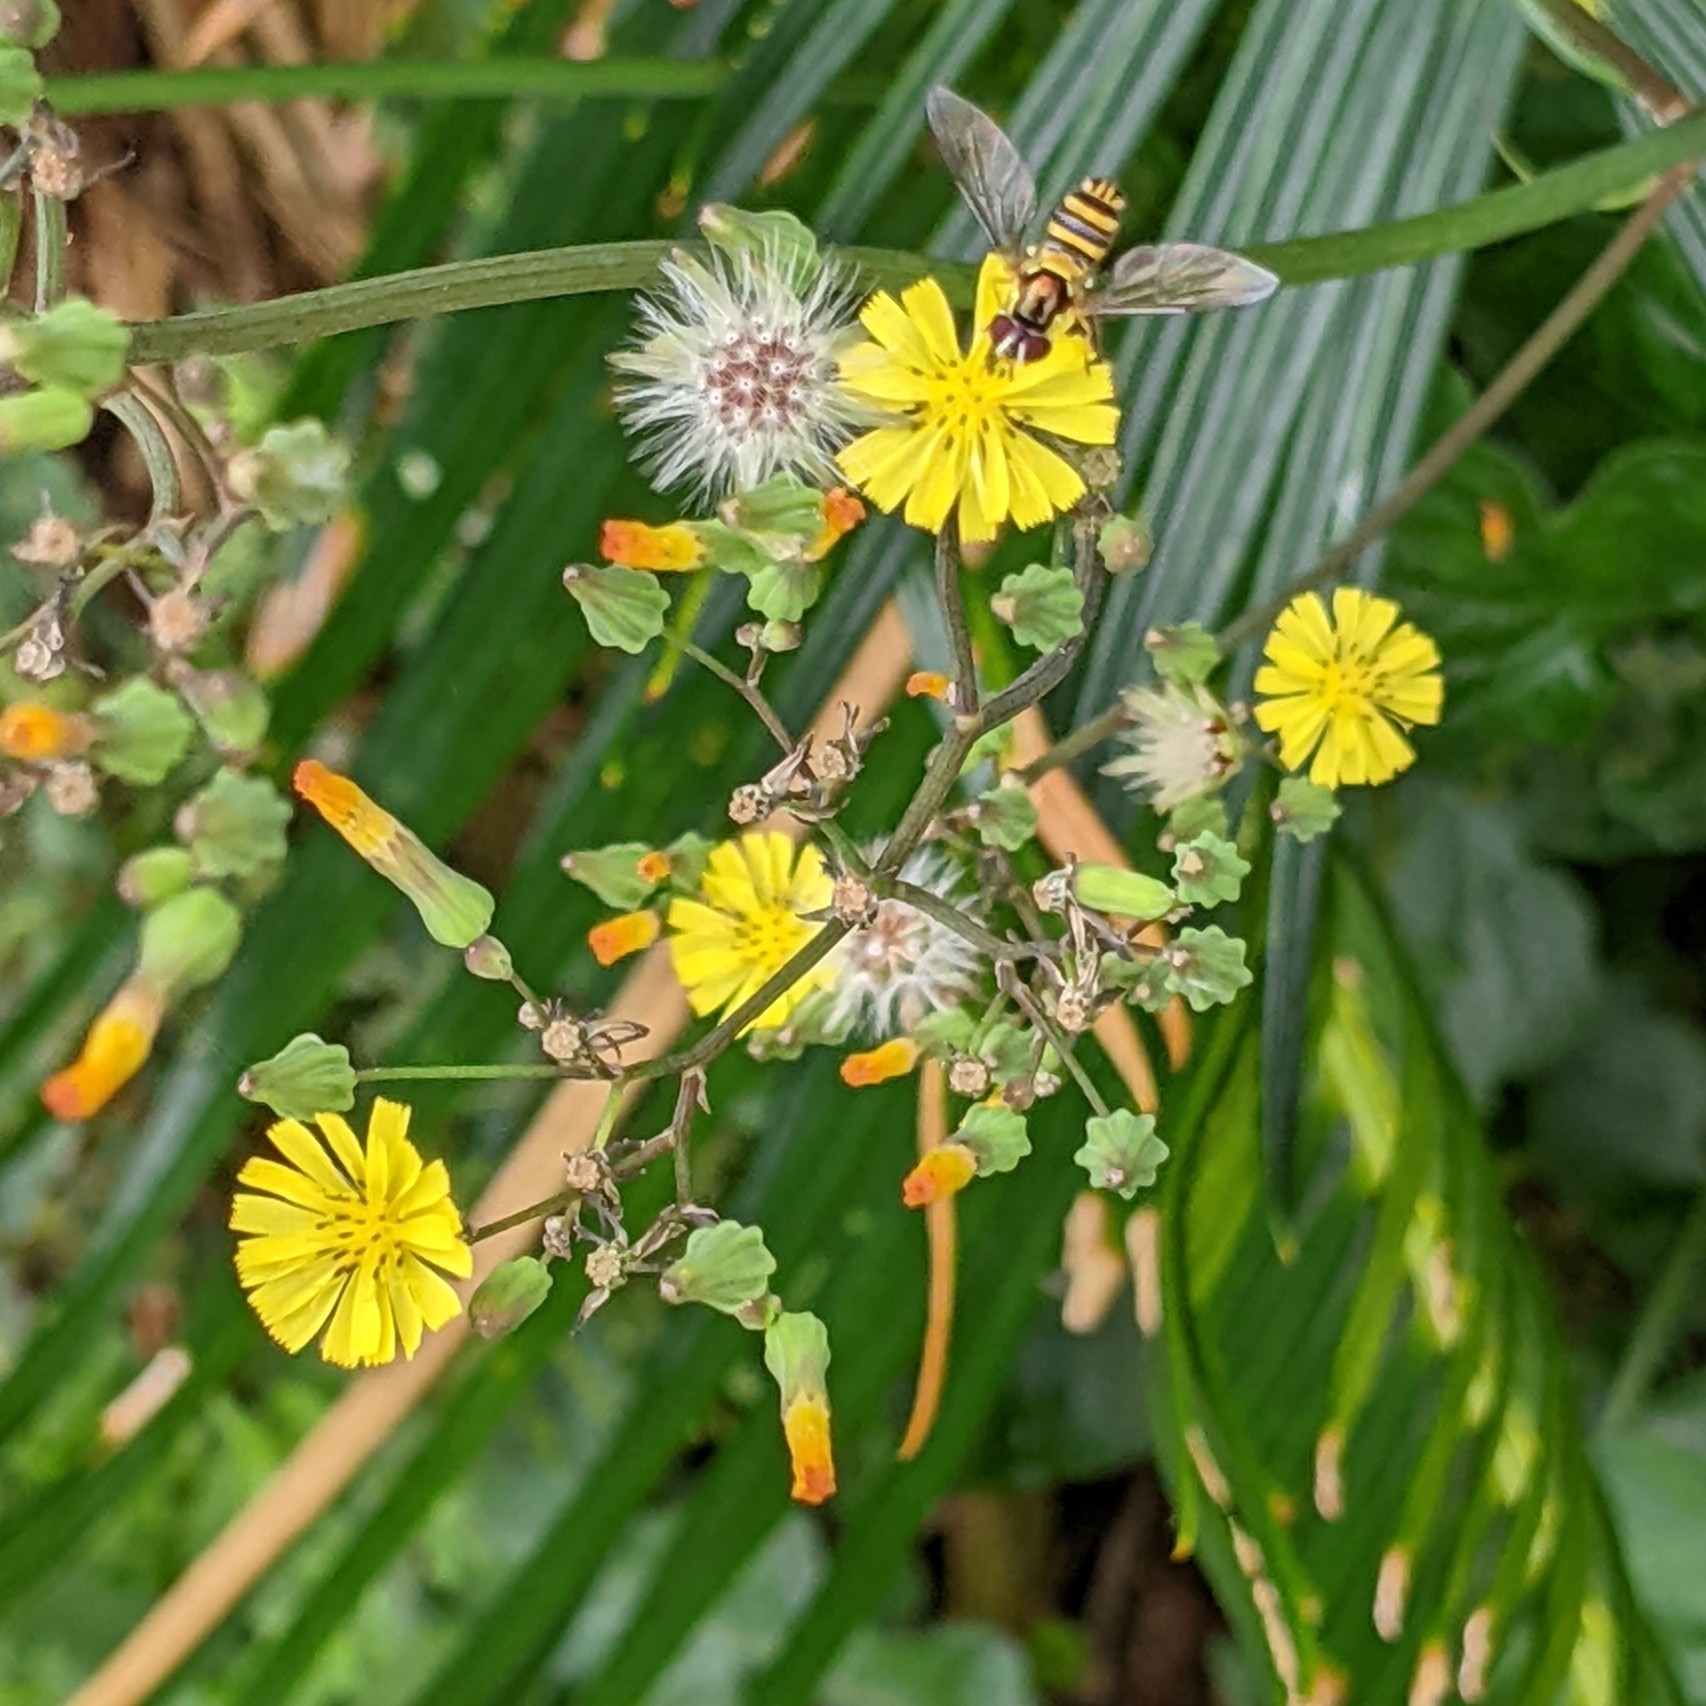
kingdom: Animalia
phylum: Arthropoda
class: Insecta
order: Diptera
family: Syrphidae
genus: Allograpta
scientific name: Allograpta obliqua
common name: Common oblique syrphid
